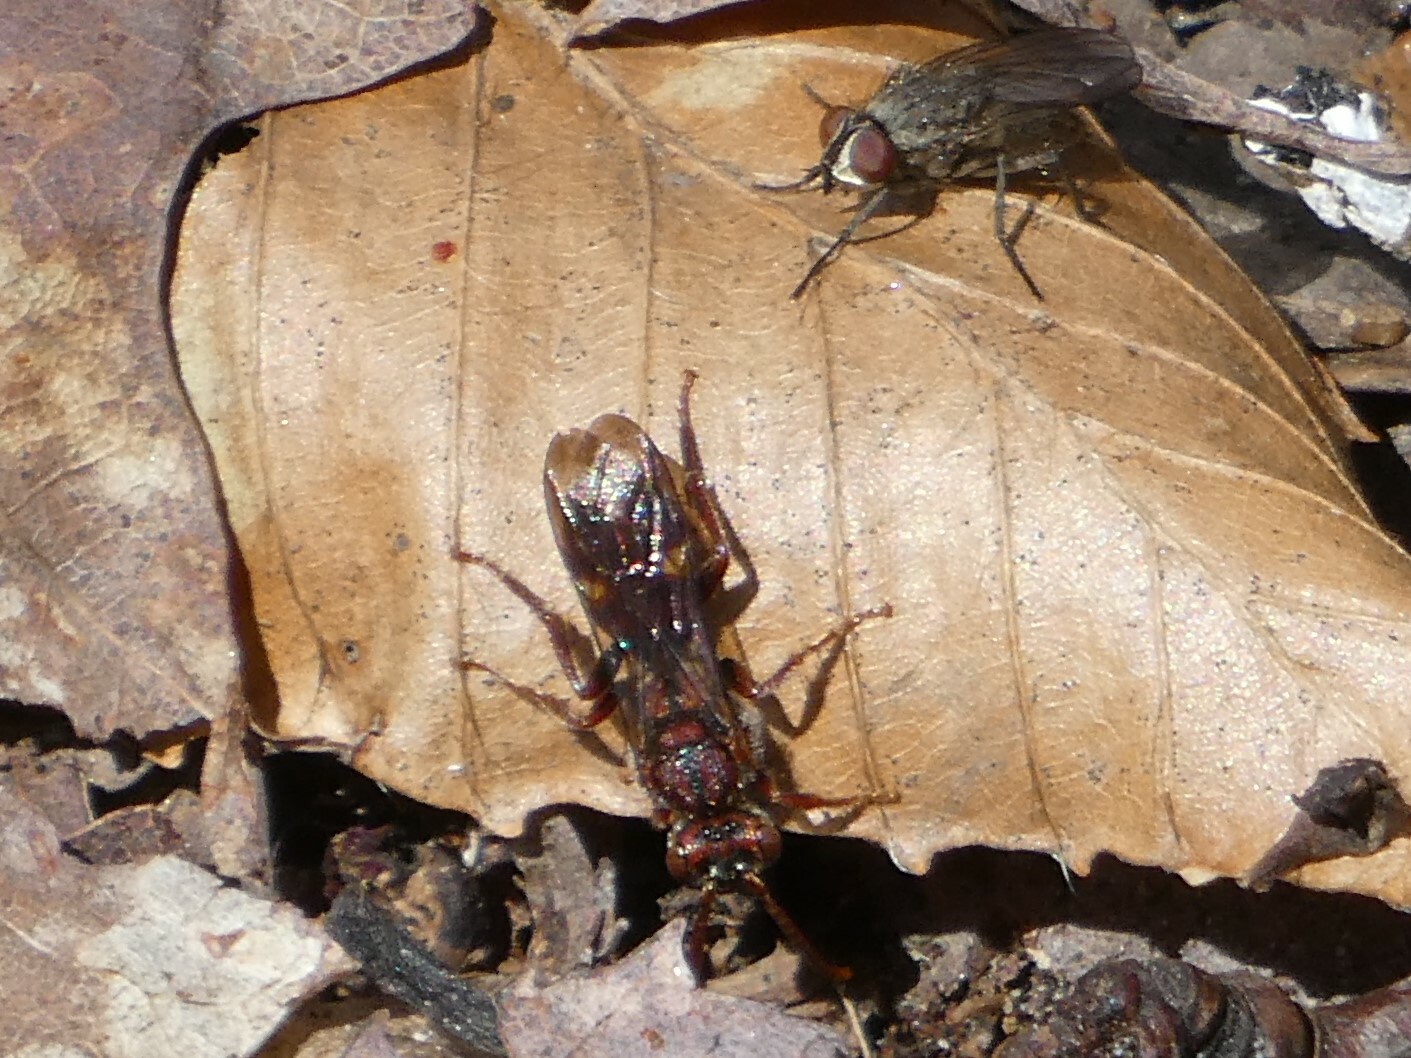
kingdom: Animalia
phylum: Arthropoda
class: Insecta
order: Hymenoptera
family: Apidae
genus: Nomada
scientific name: Nomada gracilis
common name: Slender cuckoo nomad bee
